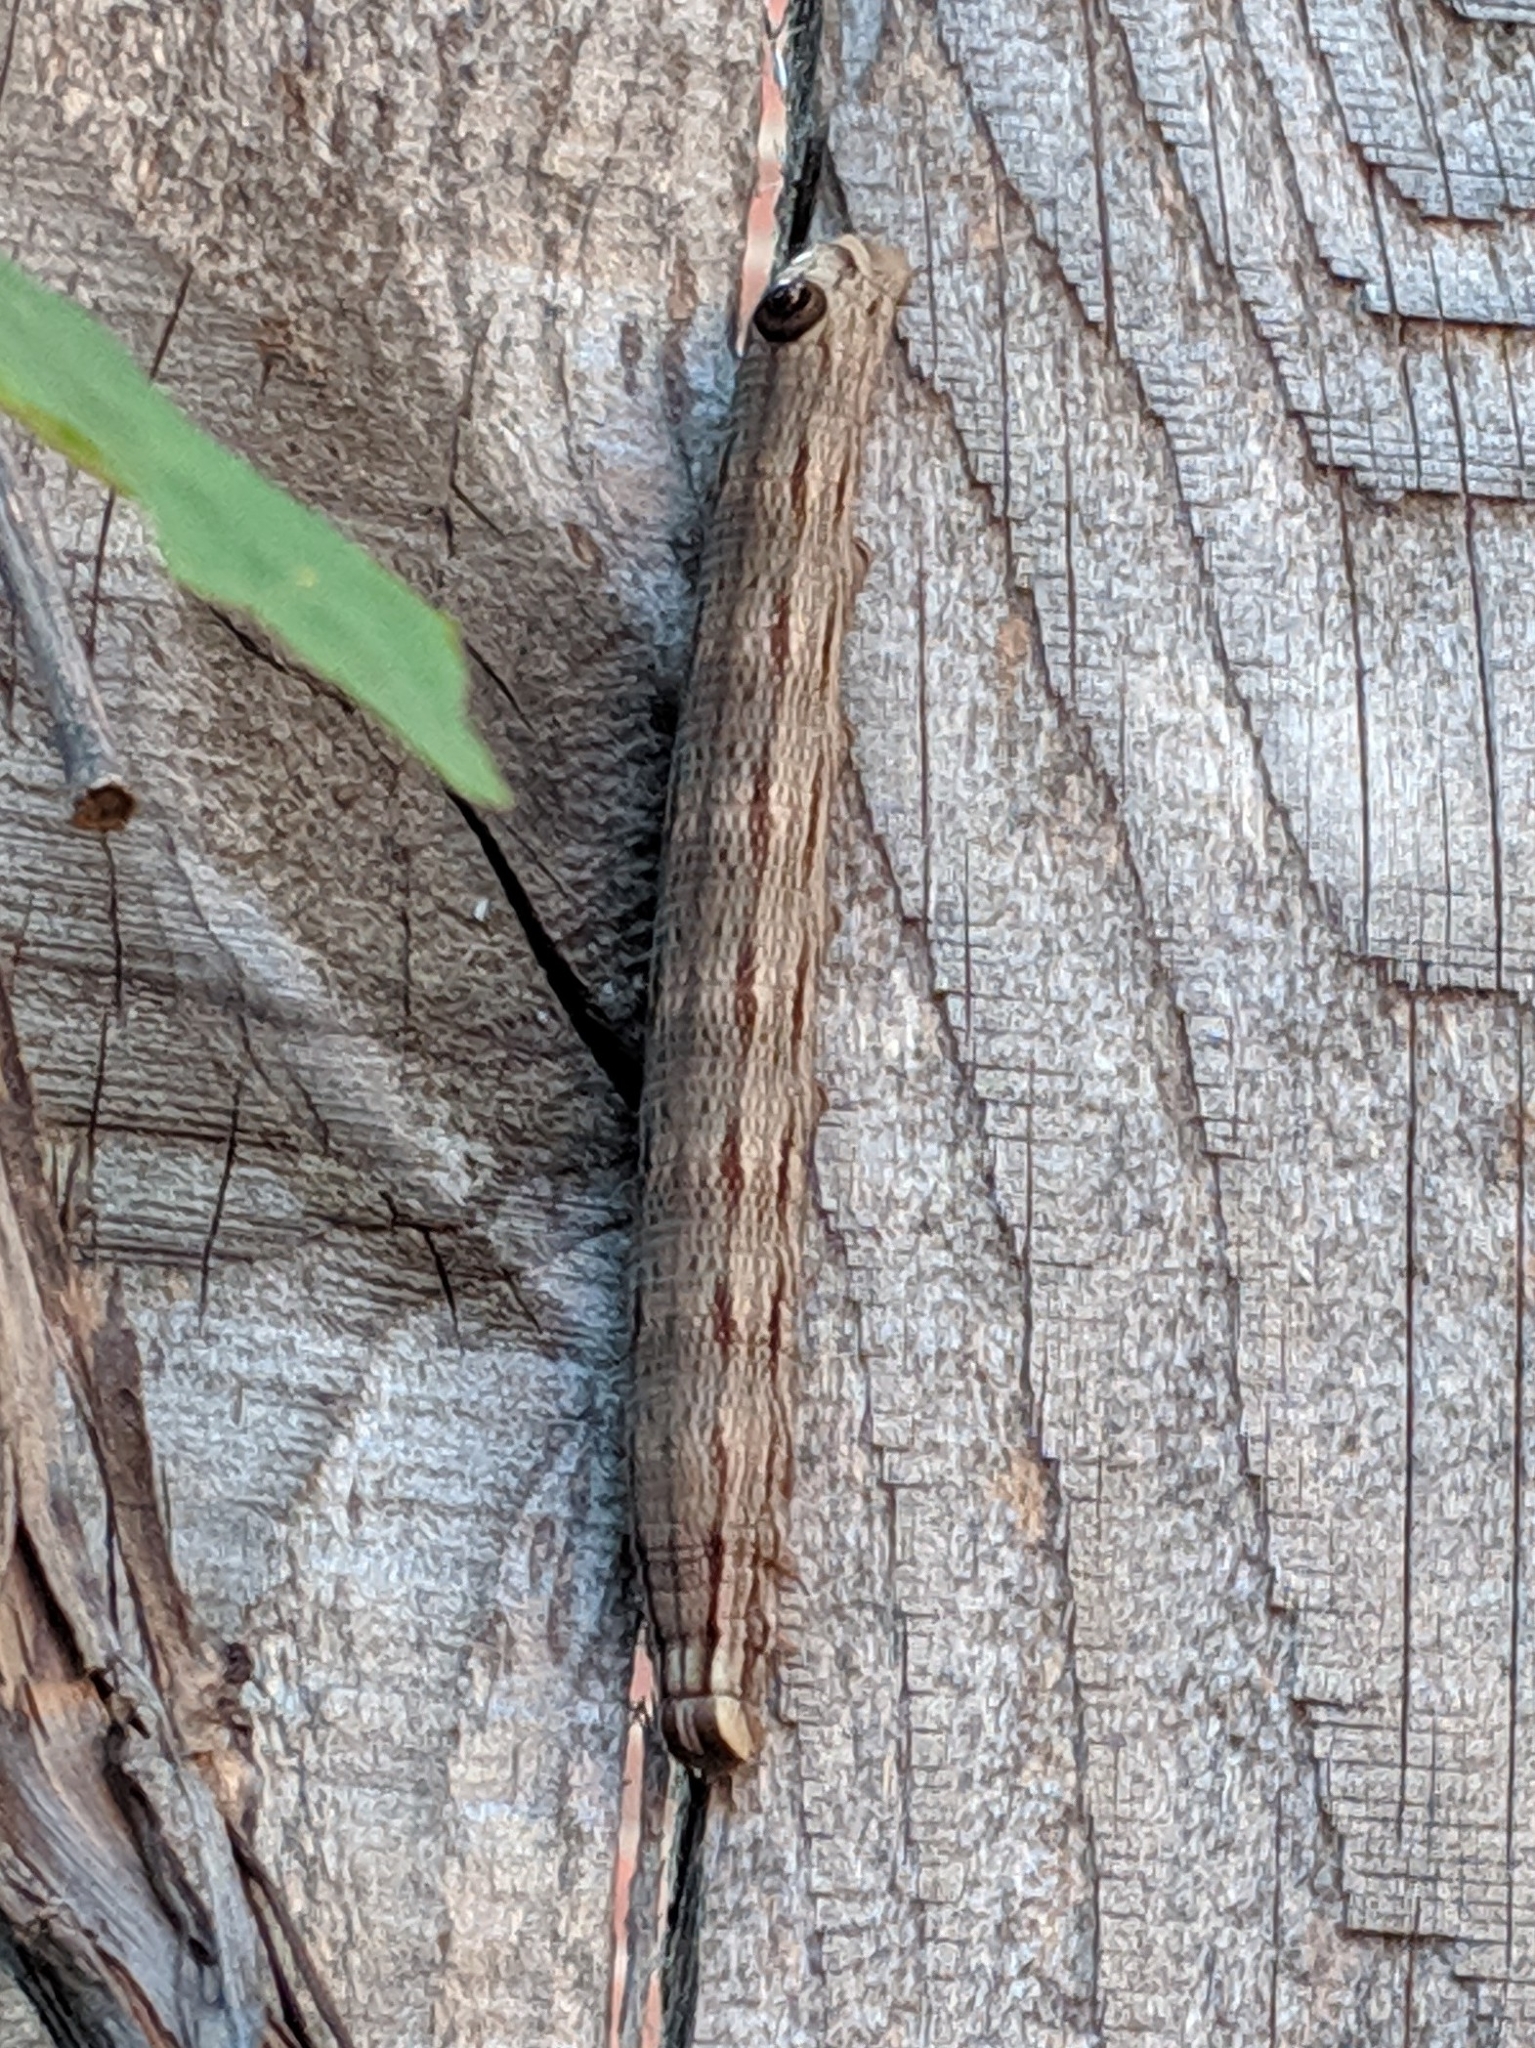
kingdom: Animalia
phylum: Arthropoda
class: Insecta
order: Lepidoptera
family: Sphingidae
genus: Sphecodina
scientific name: Sphecodina abbottii
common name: Abbott's sphinx
